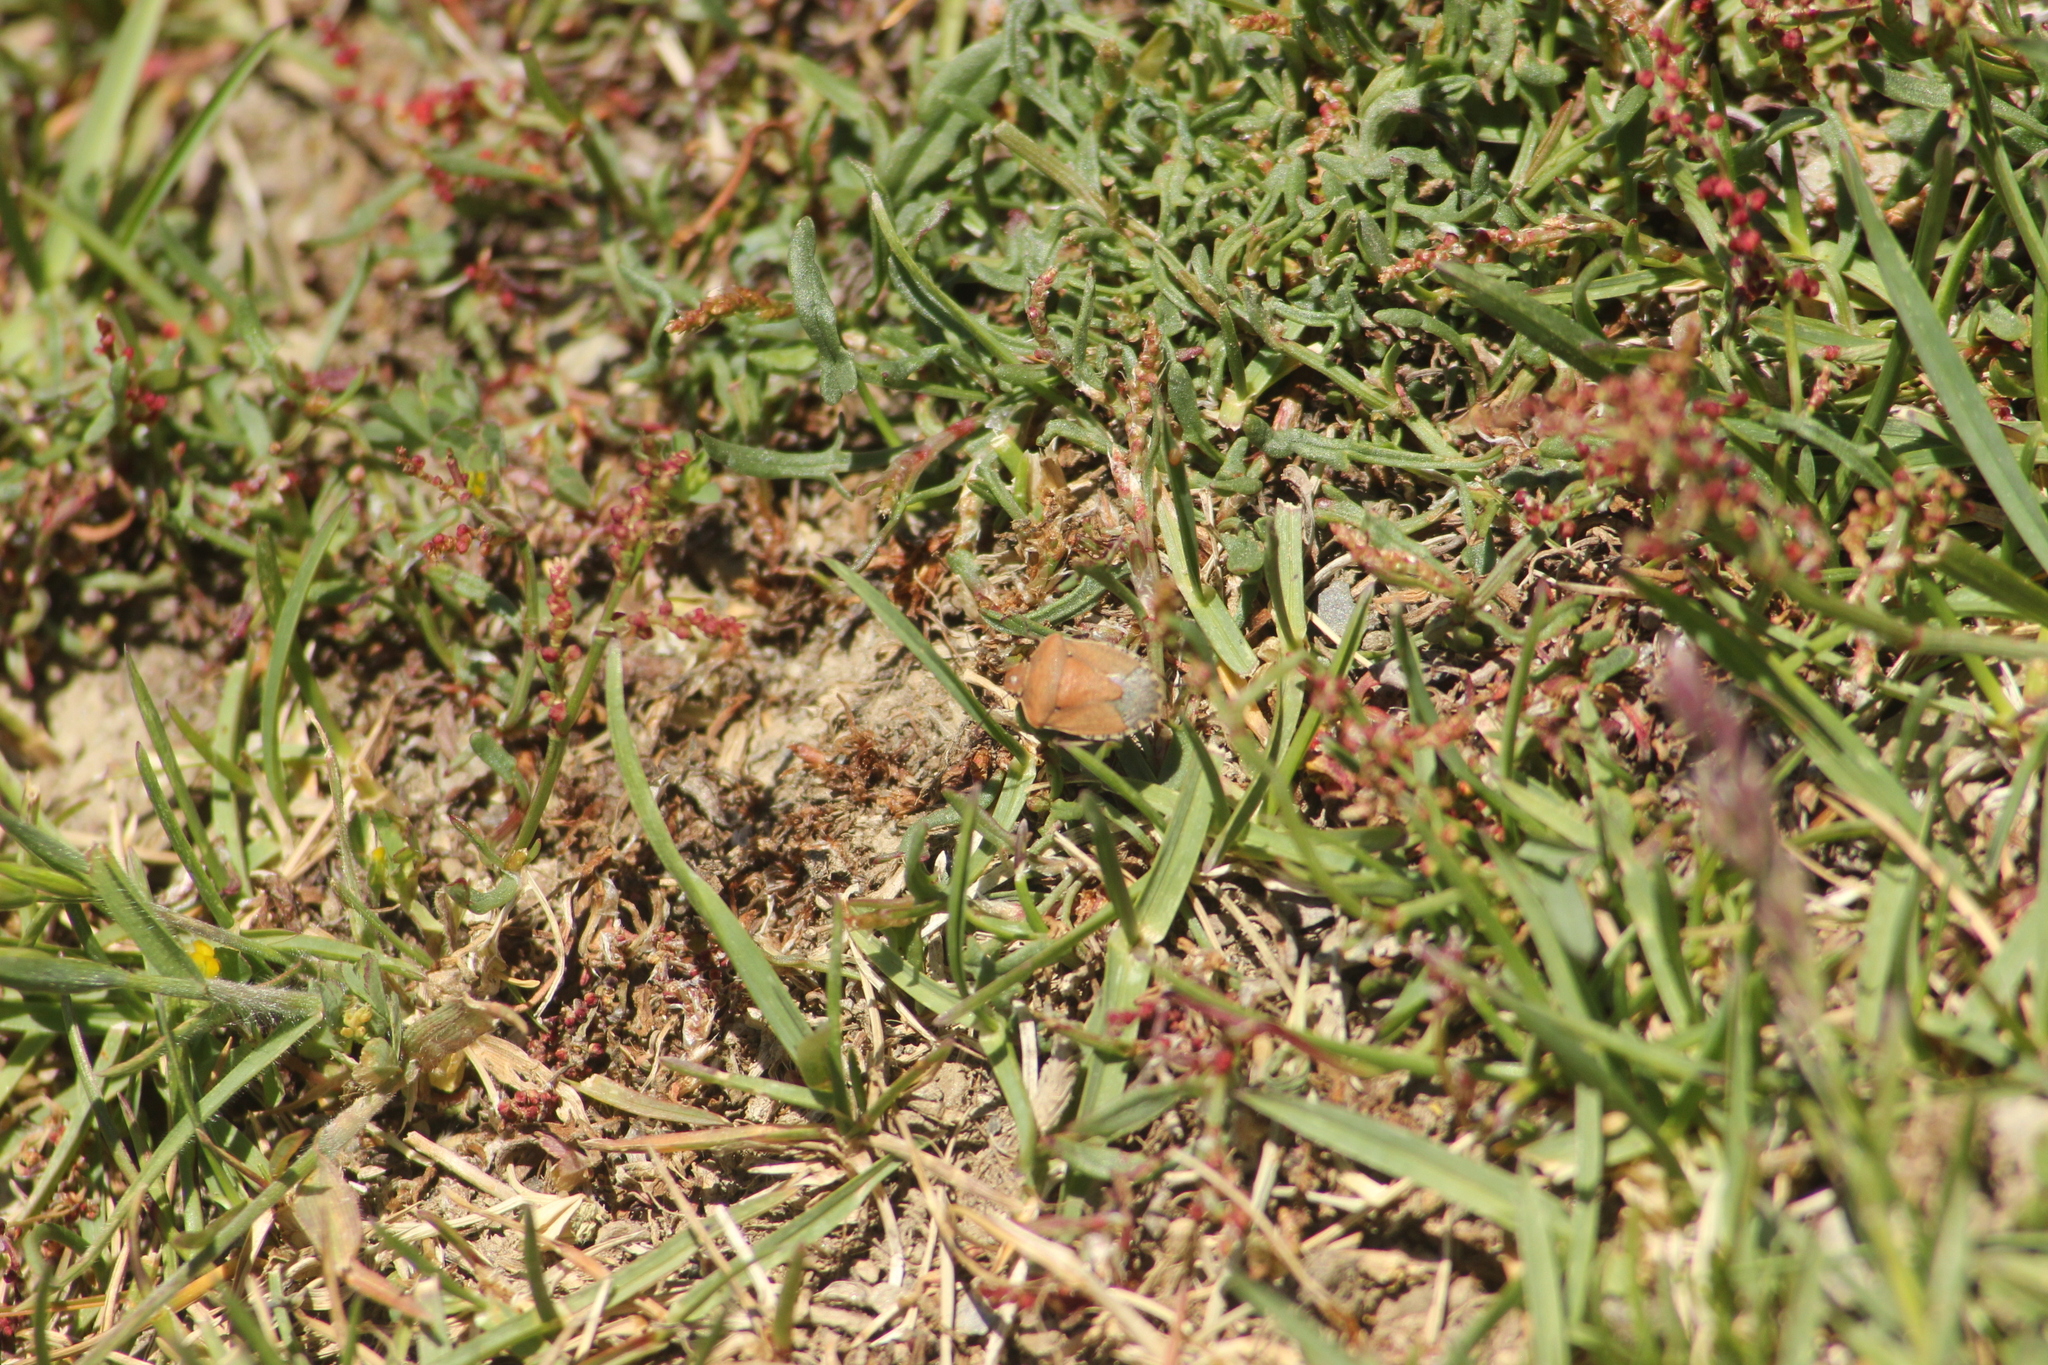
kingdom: Animalia
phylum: Arthropoda
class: Insecta
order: Hemiptera
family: Pentatomidae
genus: Dictyotus
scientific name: Dictyotus caenosus
